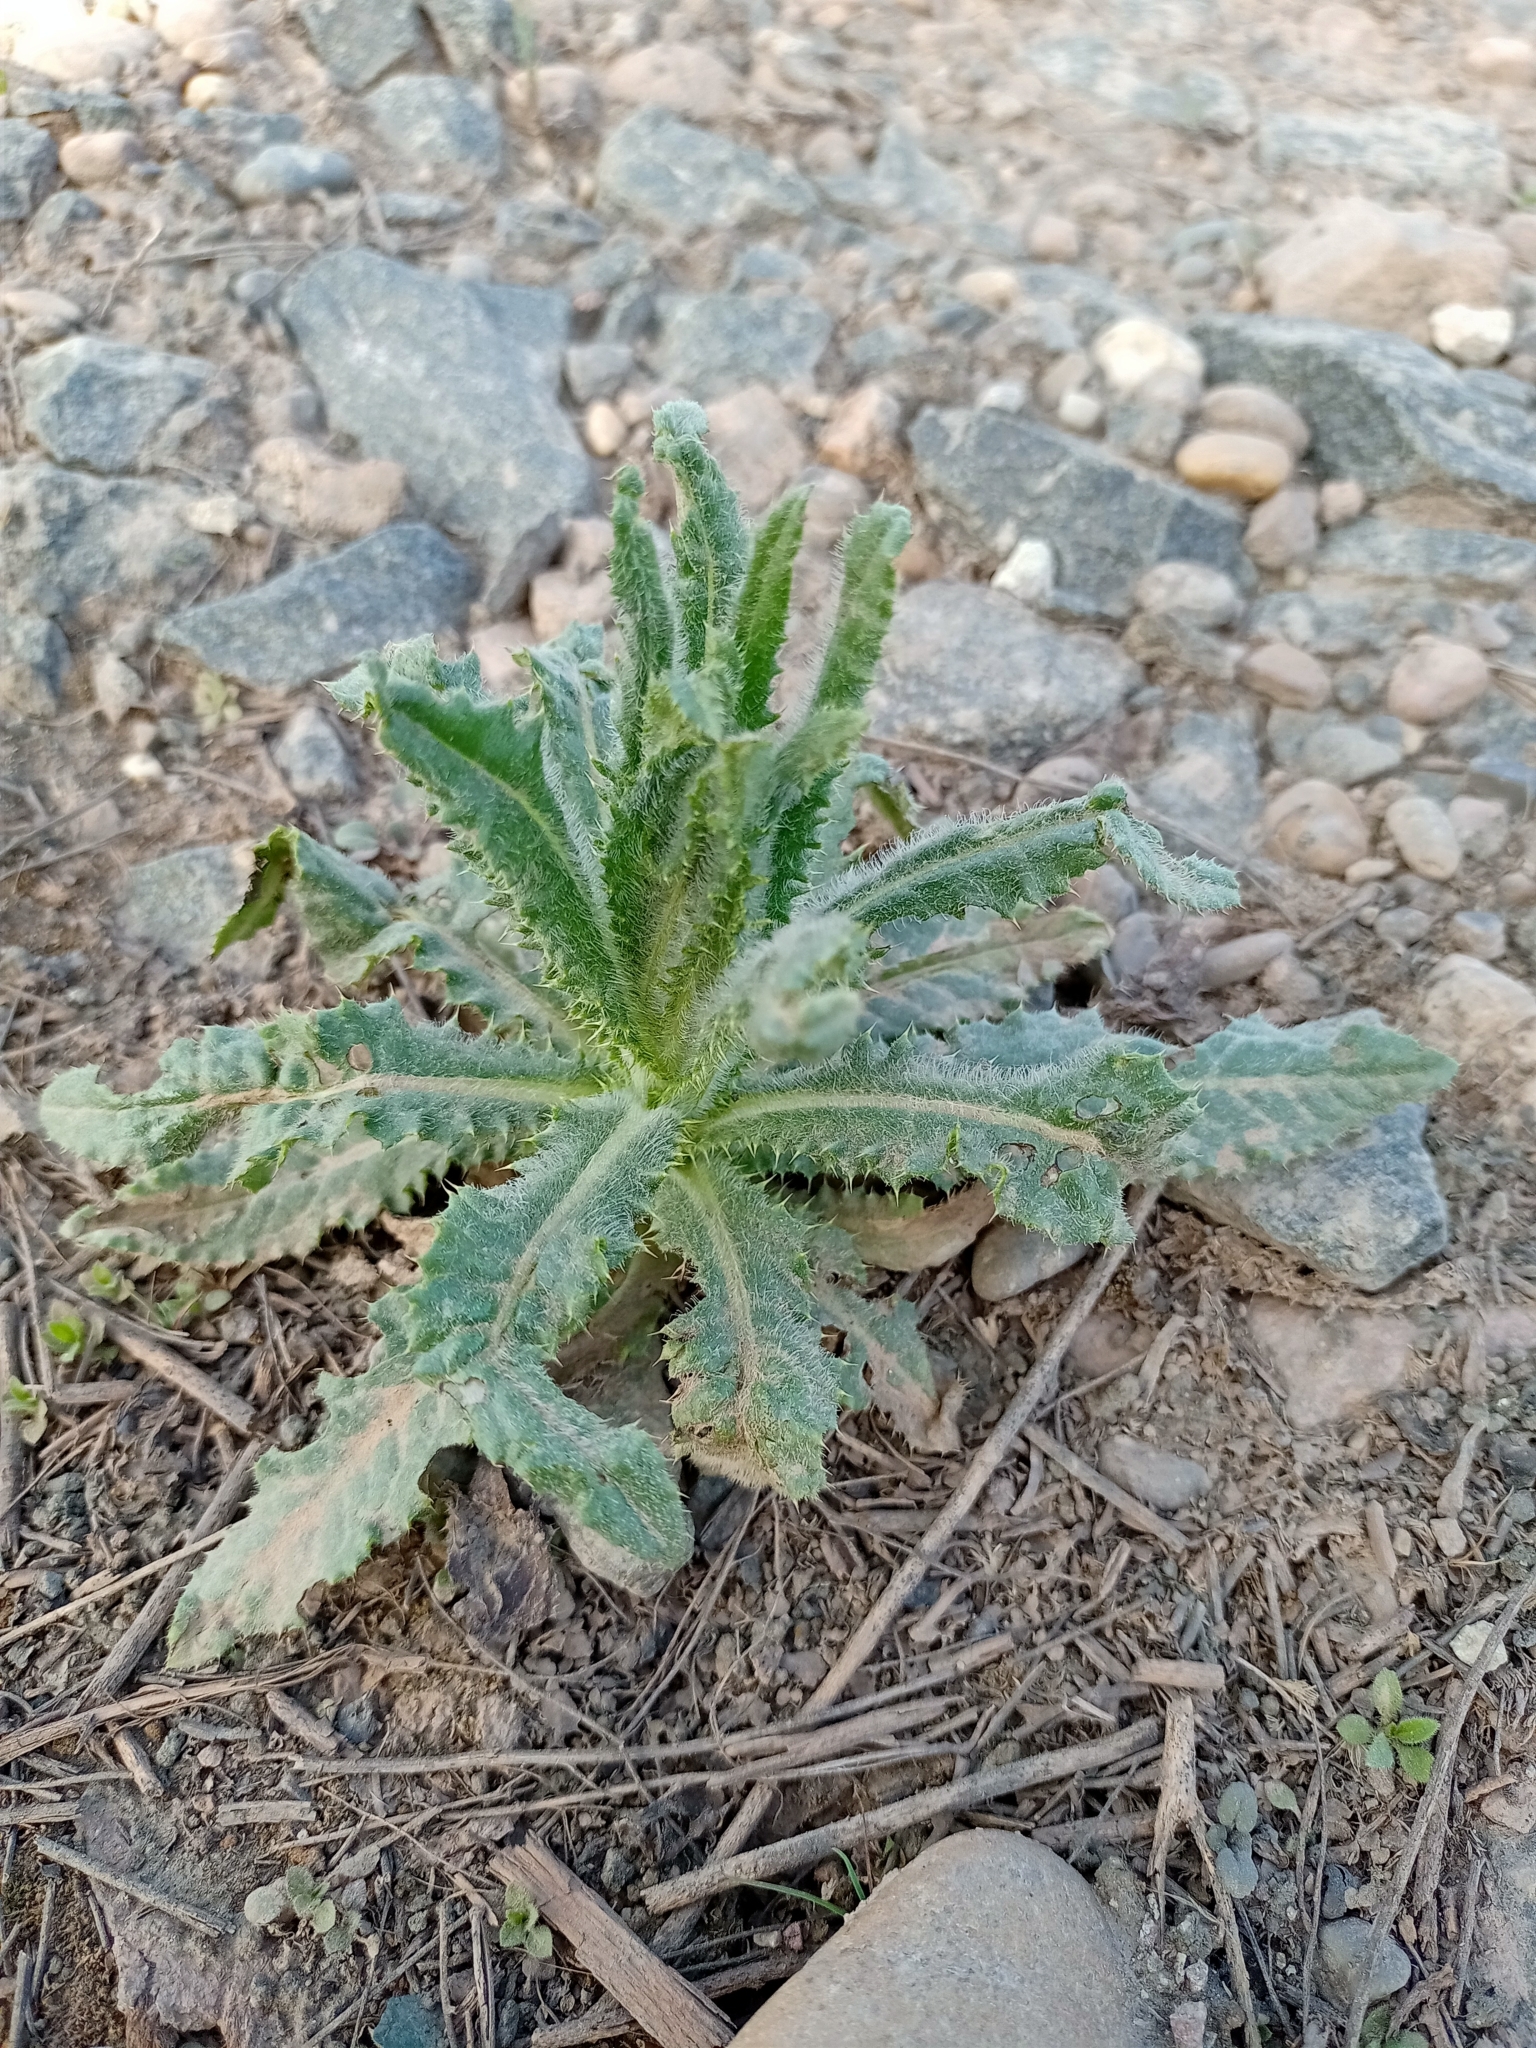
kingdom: Plantae
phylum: Tracheophyta
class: Magnoliopsida
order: Asterales
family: Asteraceae
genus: Cirsium
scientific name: Cirsium serratuloides
